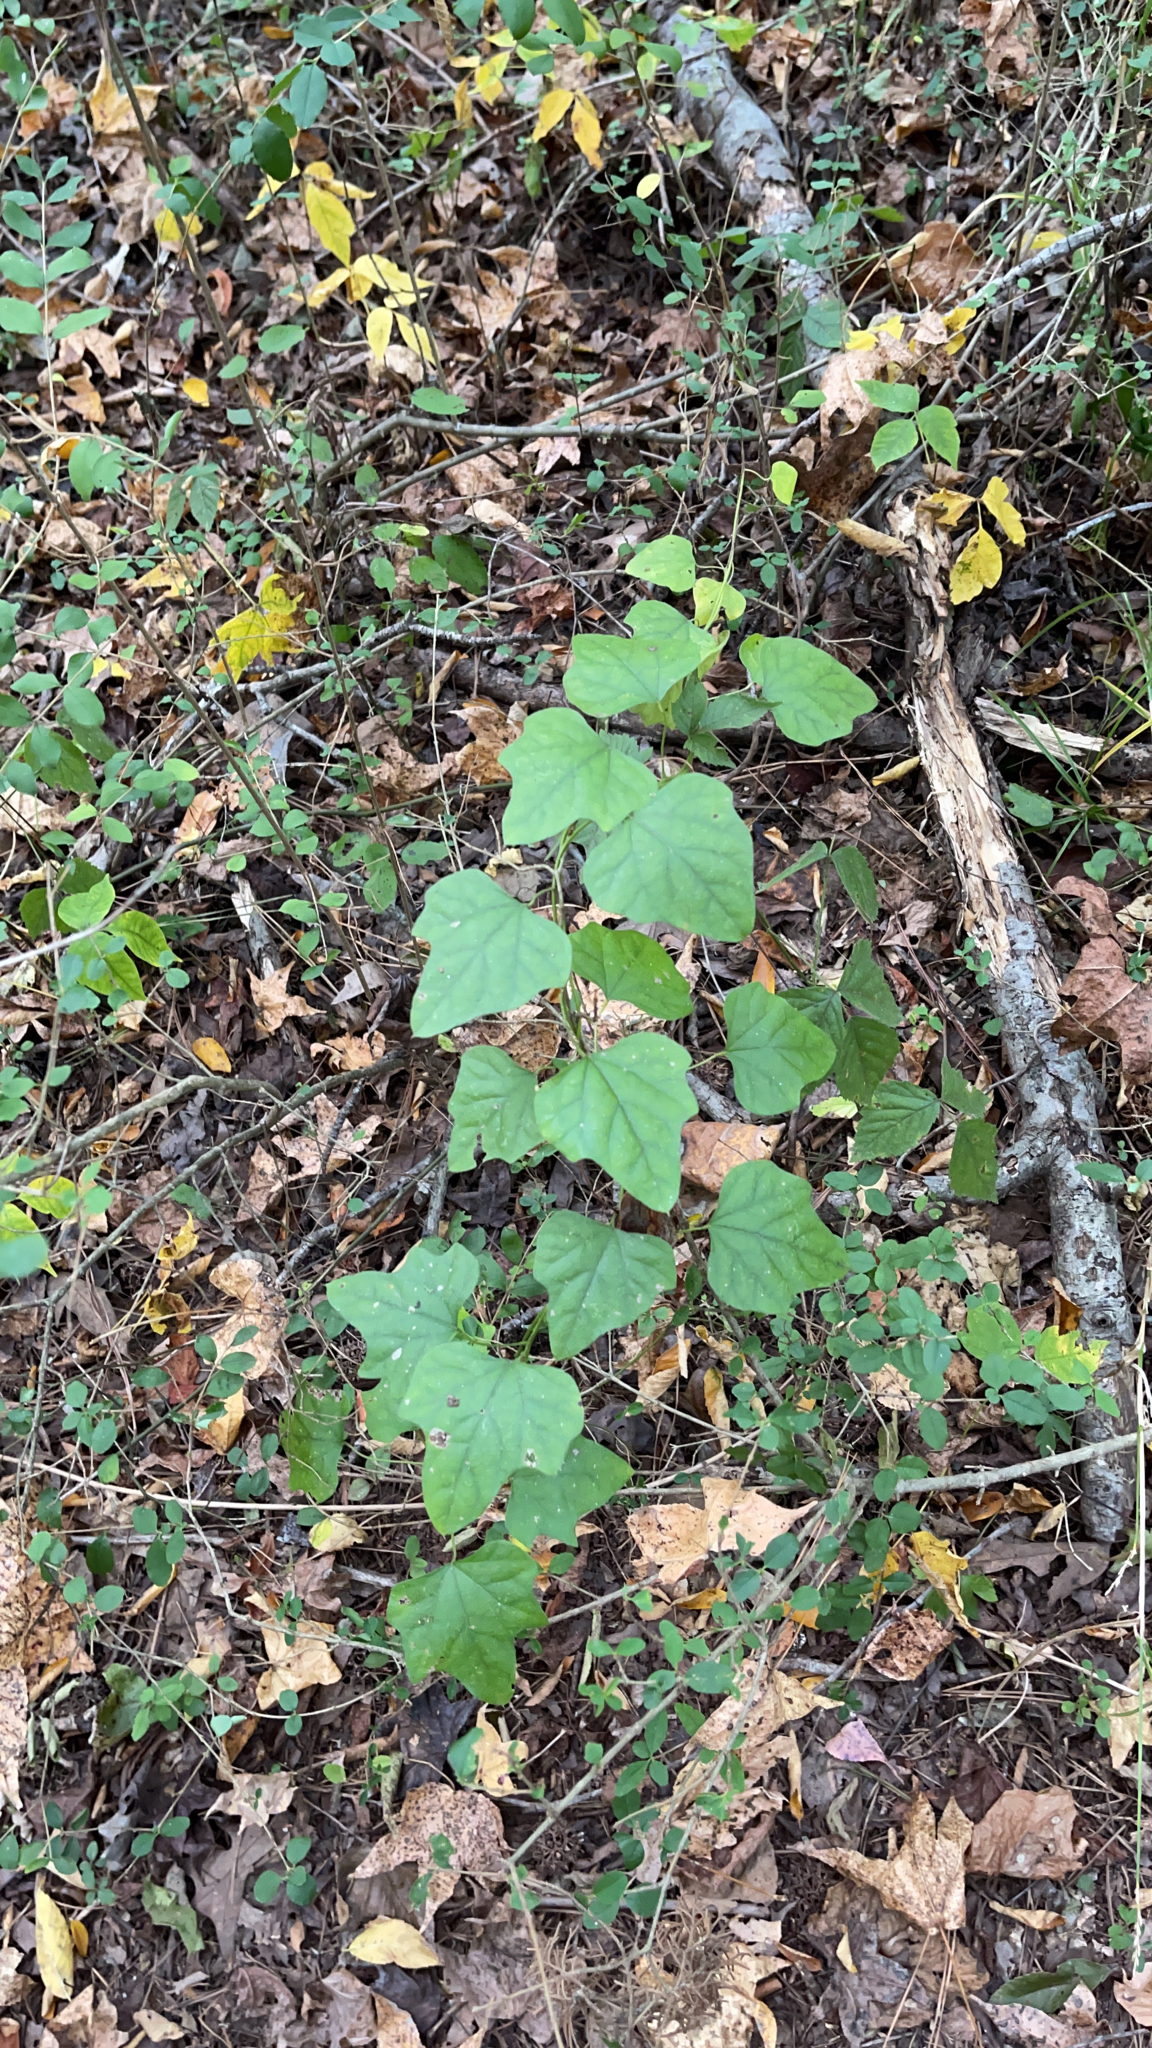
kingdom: Plantae
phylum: Tracheophyta
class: Magnoliopsida
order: Ranunculales
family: Menispermaceae
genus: Cocculus
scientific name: Cocculus carolinus
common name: Carolina moonseed
